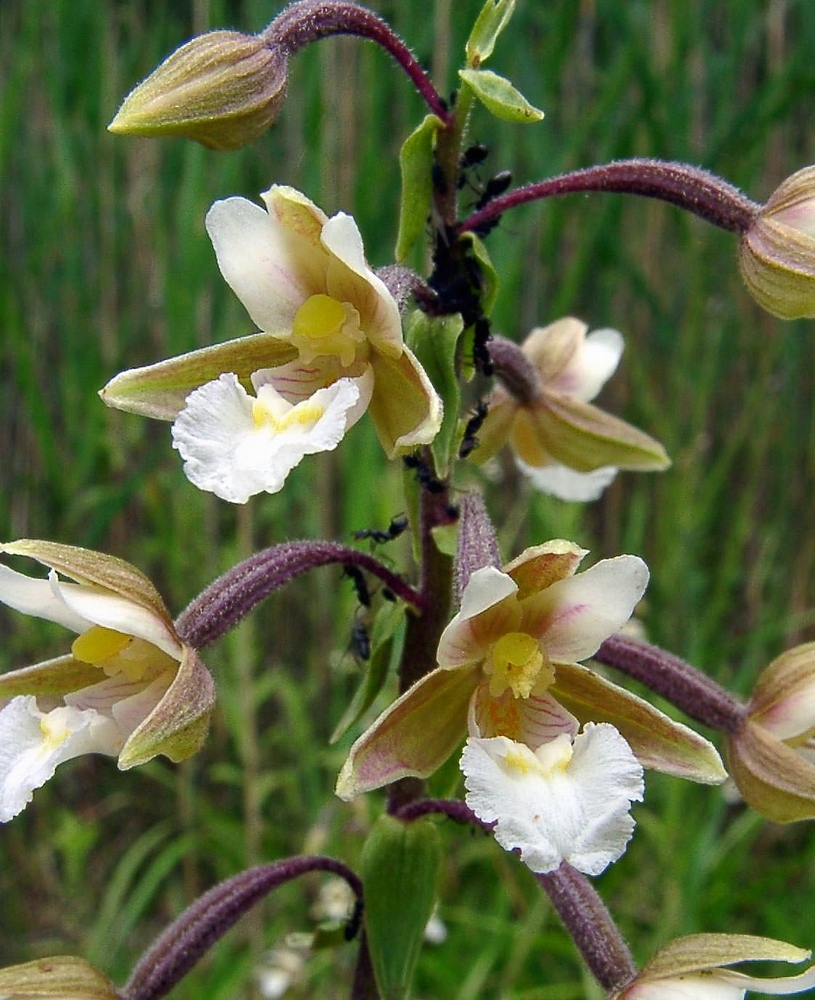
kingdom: Plantae
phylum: Tracheophyta
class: Liliopsida
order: Asparagales
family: Orchidaceae
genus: Epipactis
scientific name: Epipactis palustris
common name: Marsh helleborine
